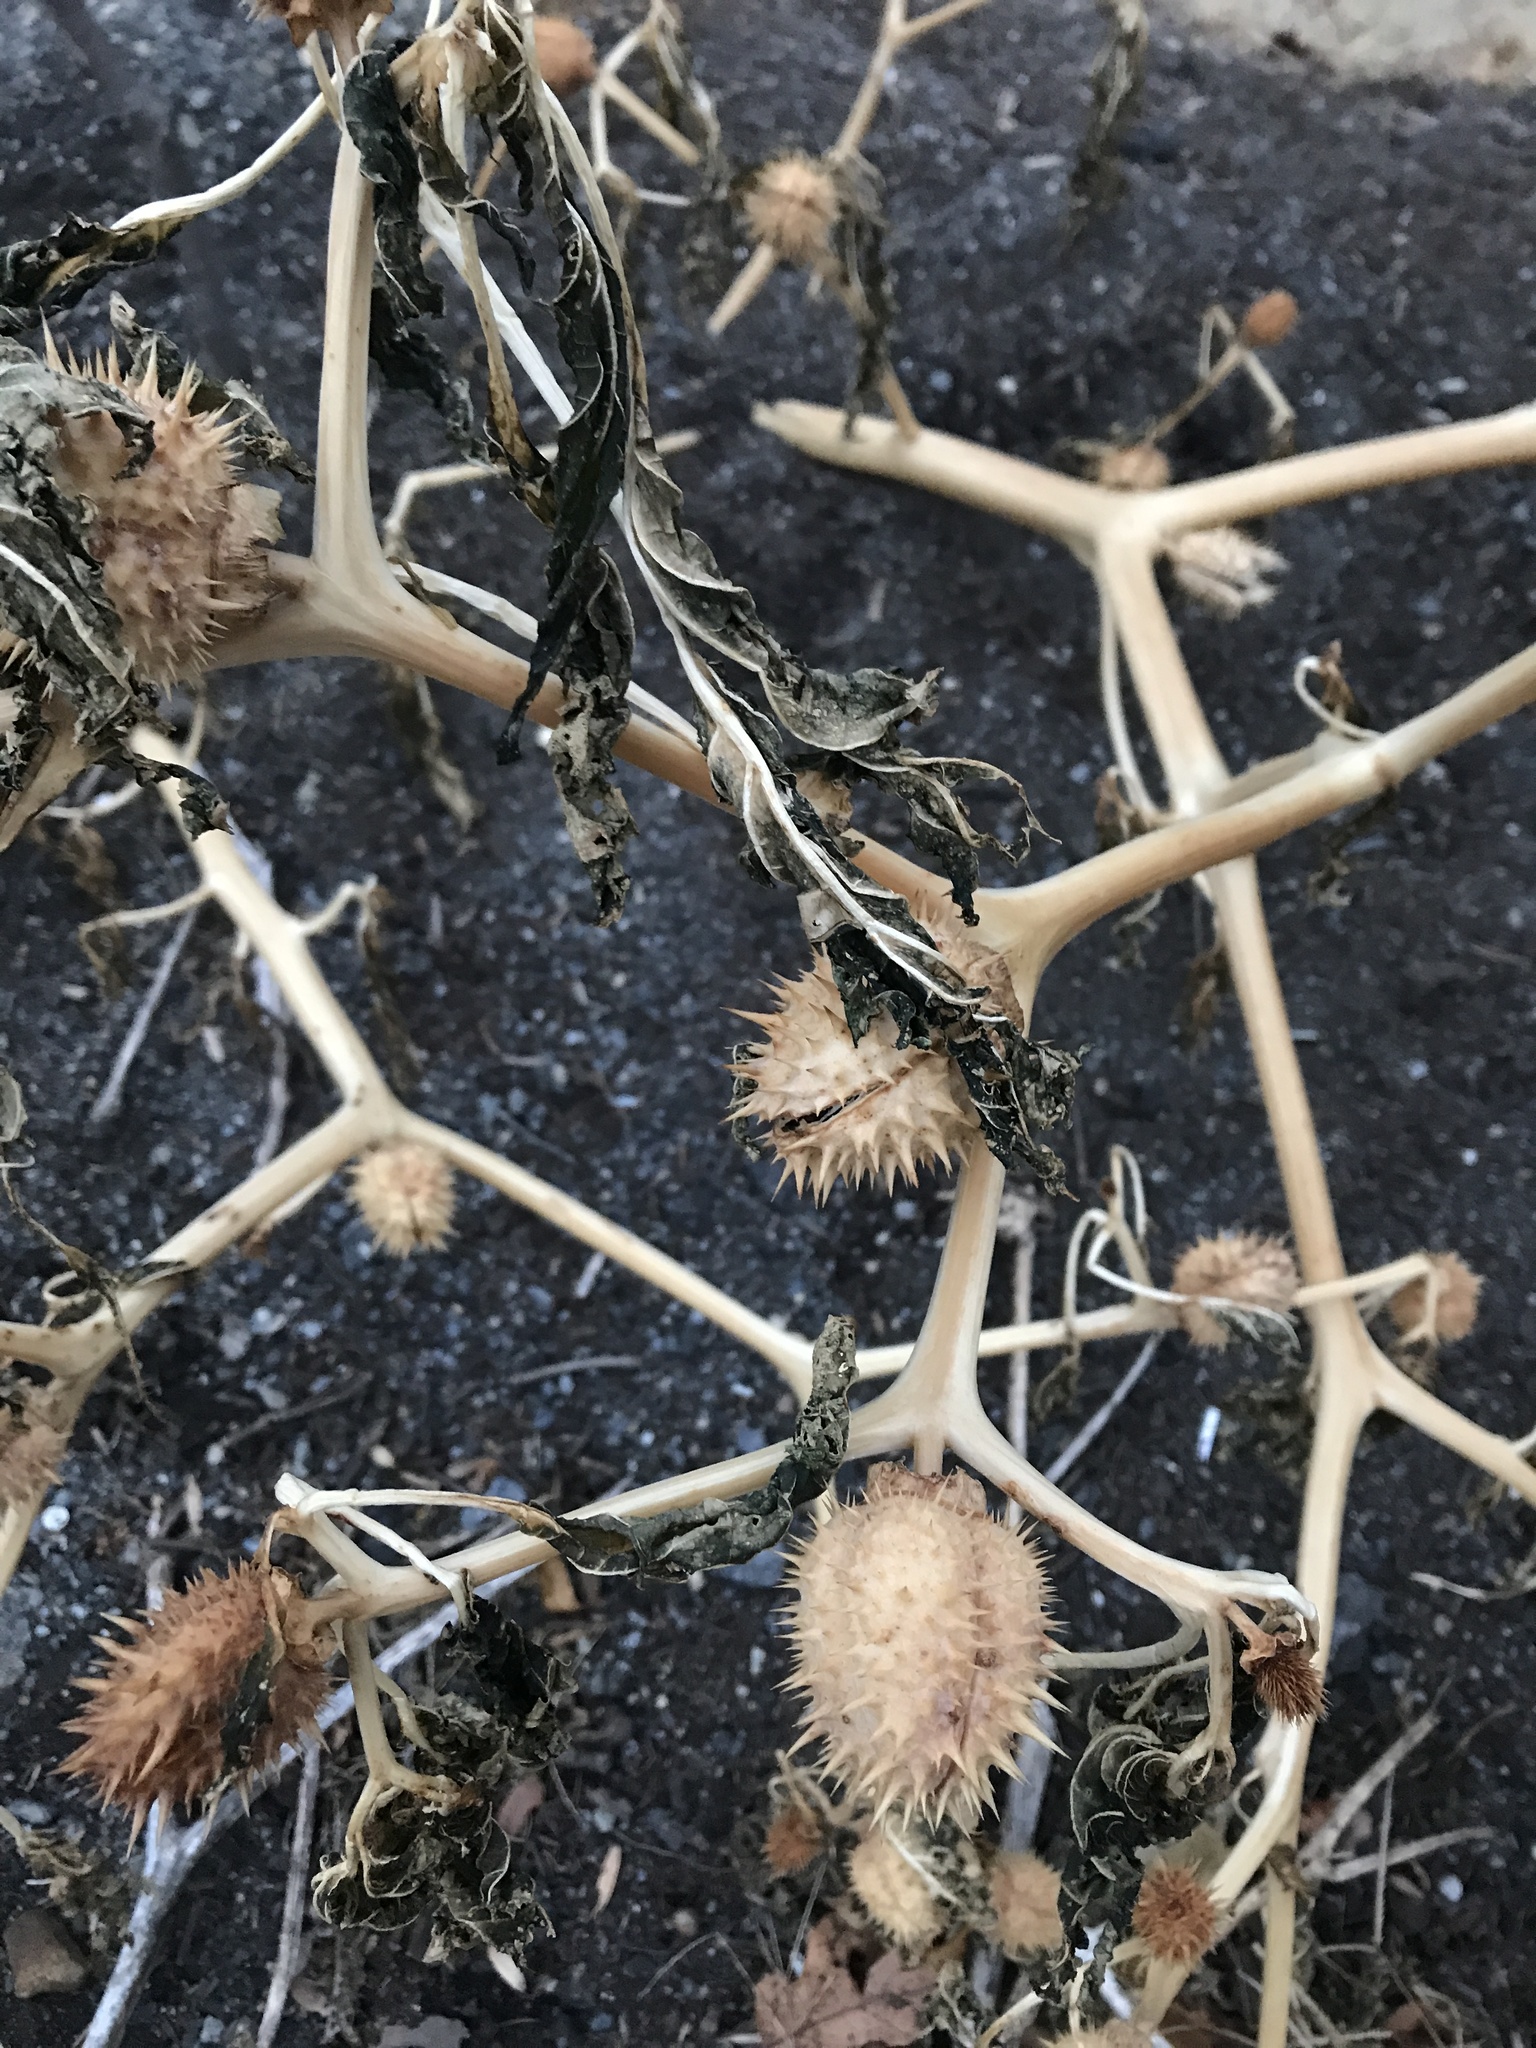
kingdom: Plantae
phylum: Tracheophyta
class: Magnoliopsida
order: Solanales
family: Solanaceae
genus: Datura
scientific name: Datura stramonium
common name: Thorn-apple
